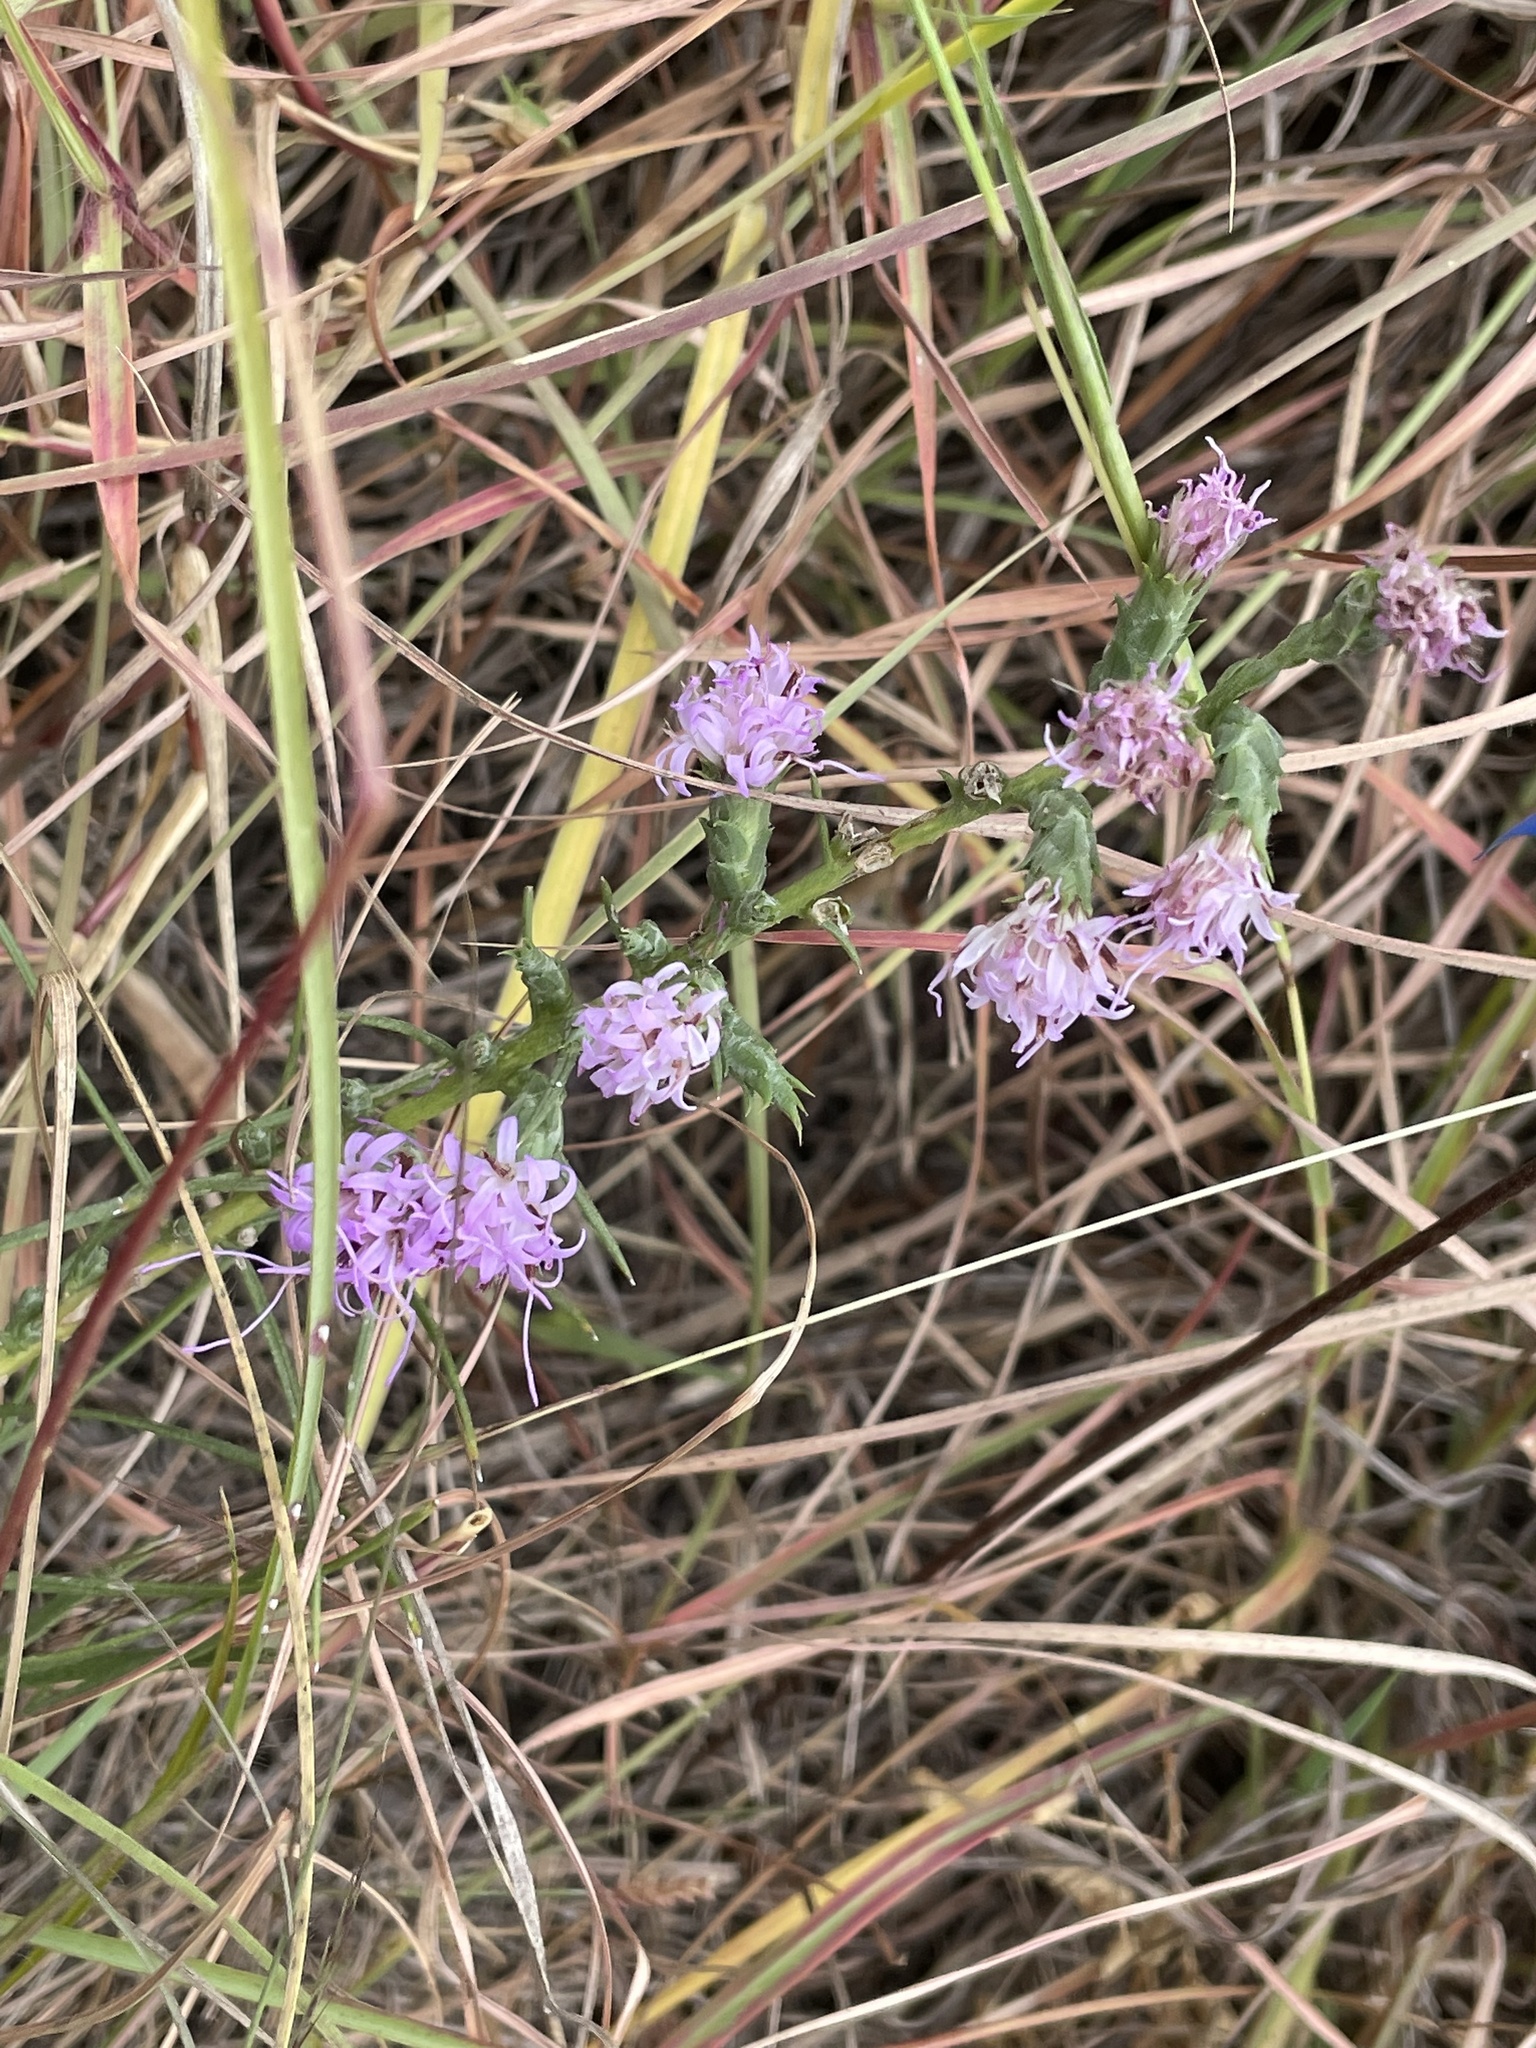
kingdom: Plantae
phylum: Tracheophyta
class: Magnoliopsida
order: Asterales
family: Asteraceae
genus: Liatris
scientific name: Liatris bracteata
